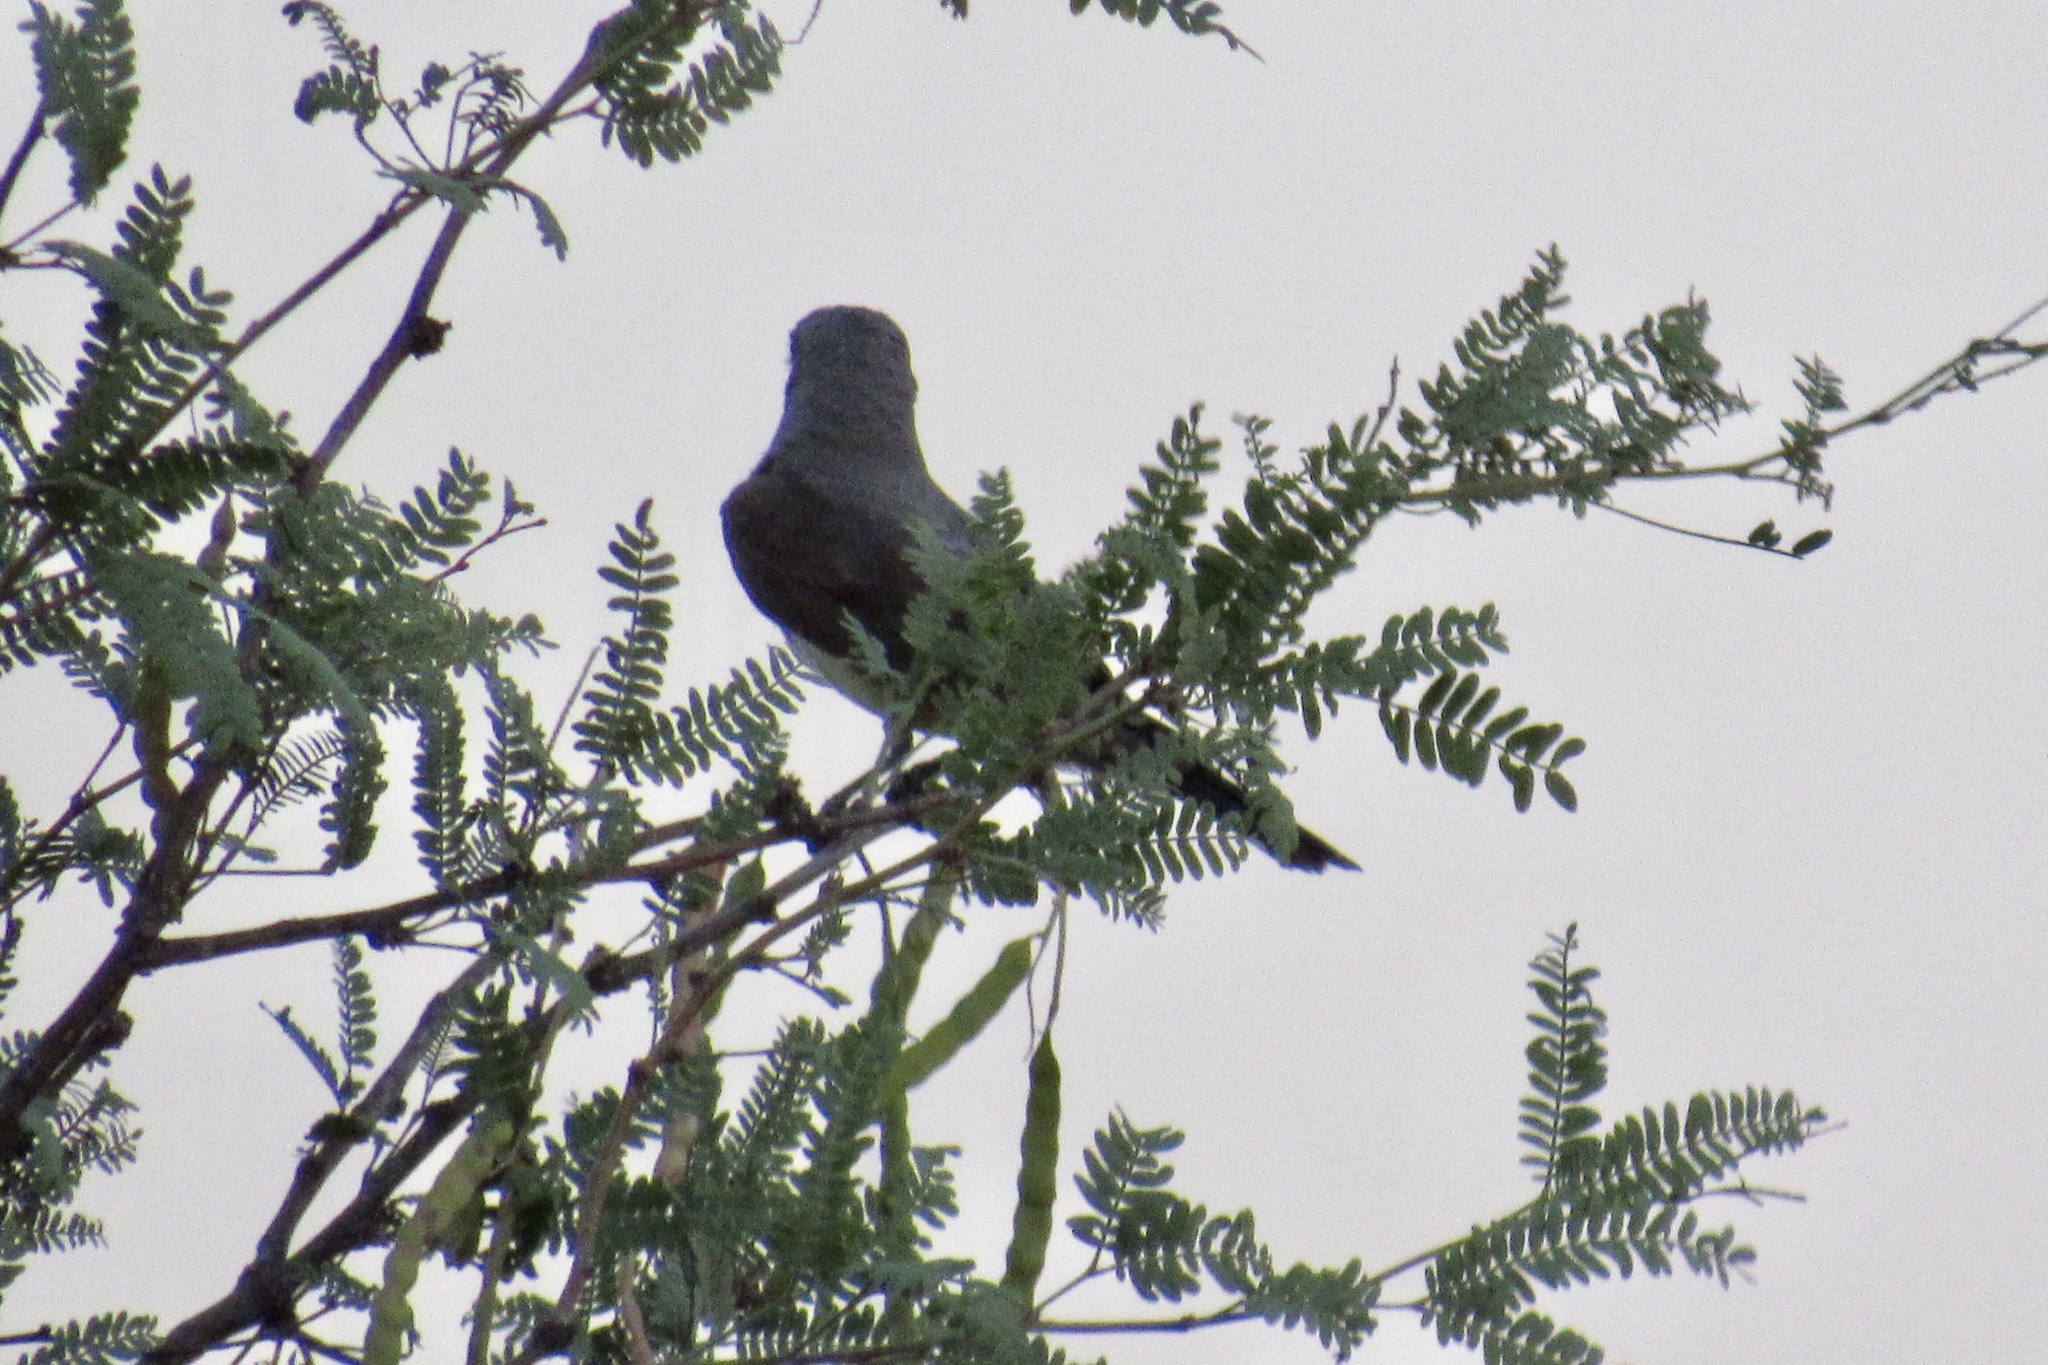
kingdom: Animalia
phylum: Chordata
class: Aves
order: Passeriformes
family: Tyrannidae
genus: Tyrannus
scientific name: Tyrannus verticalis
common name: Western kingbird
